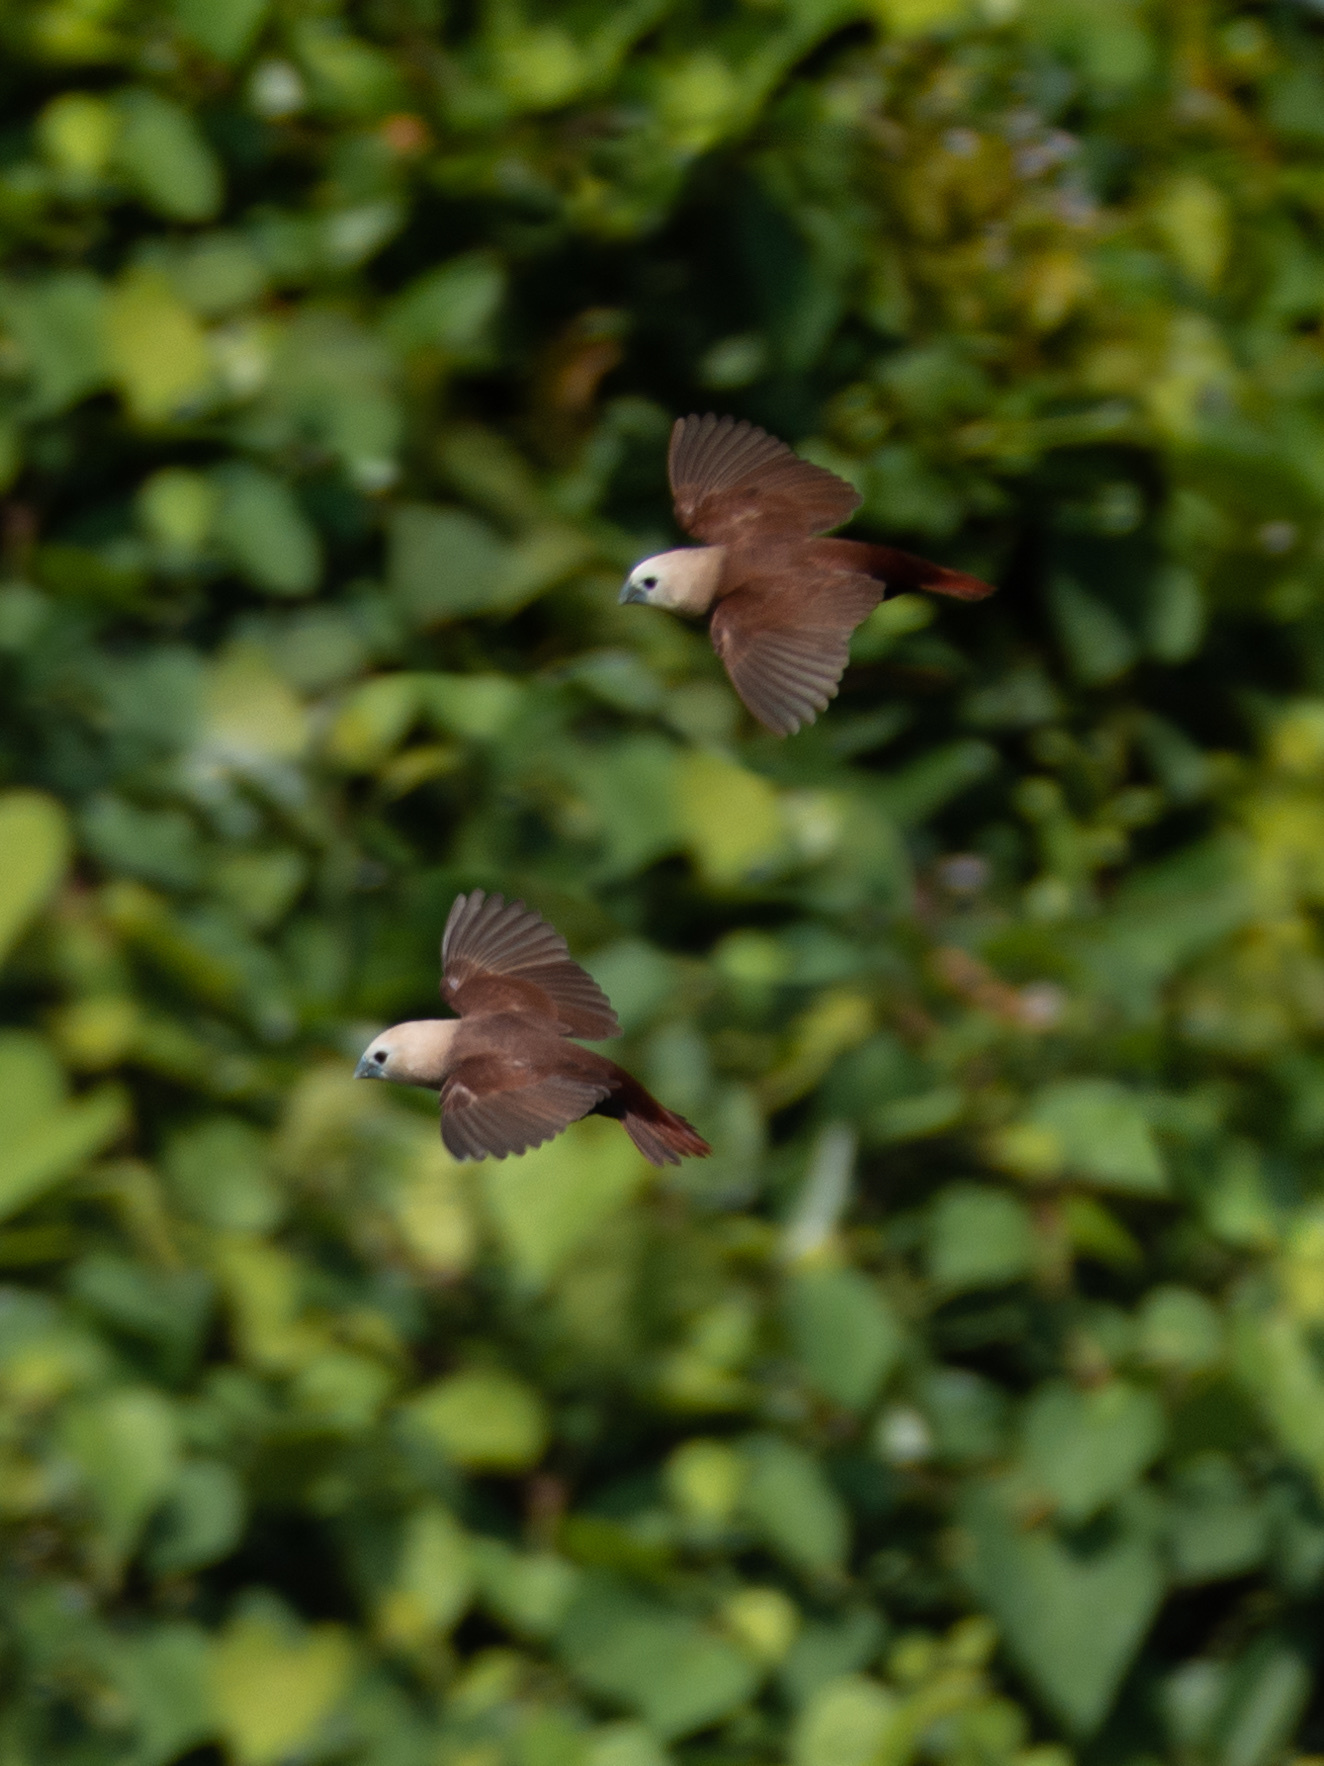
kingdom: Animalia
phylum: Chordata
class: Aves
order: Passeriformes
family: Estrildidae
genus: Lonchura
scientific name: Lonchura maja
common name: White-headed munia
